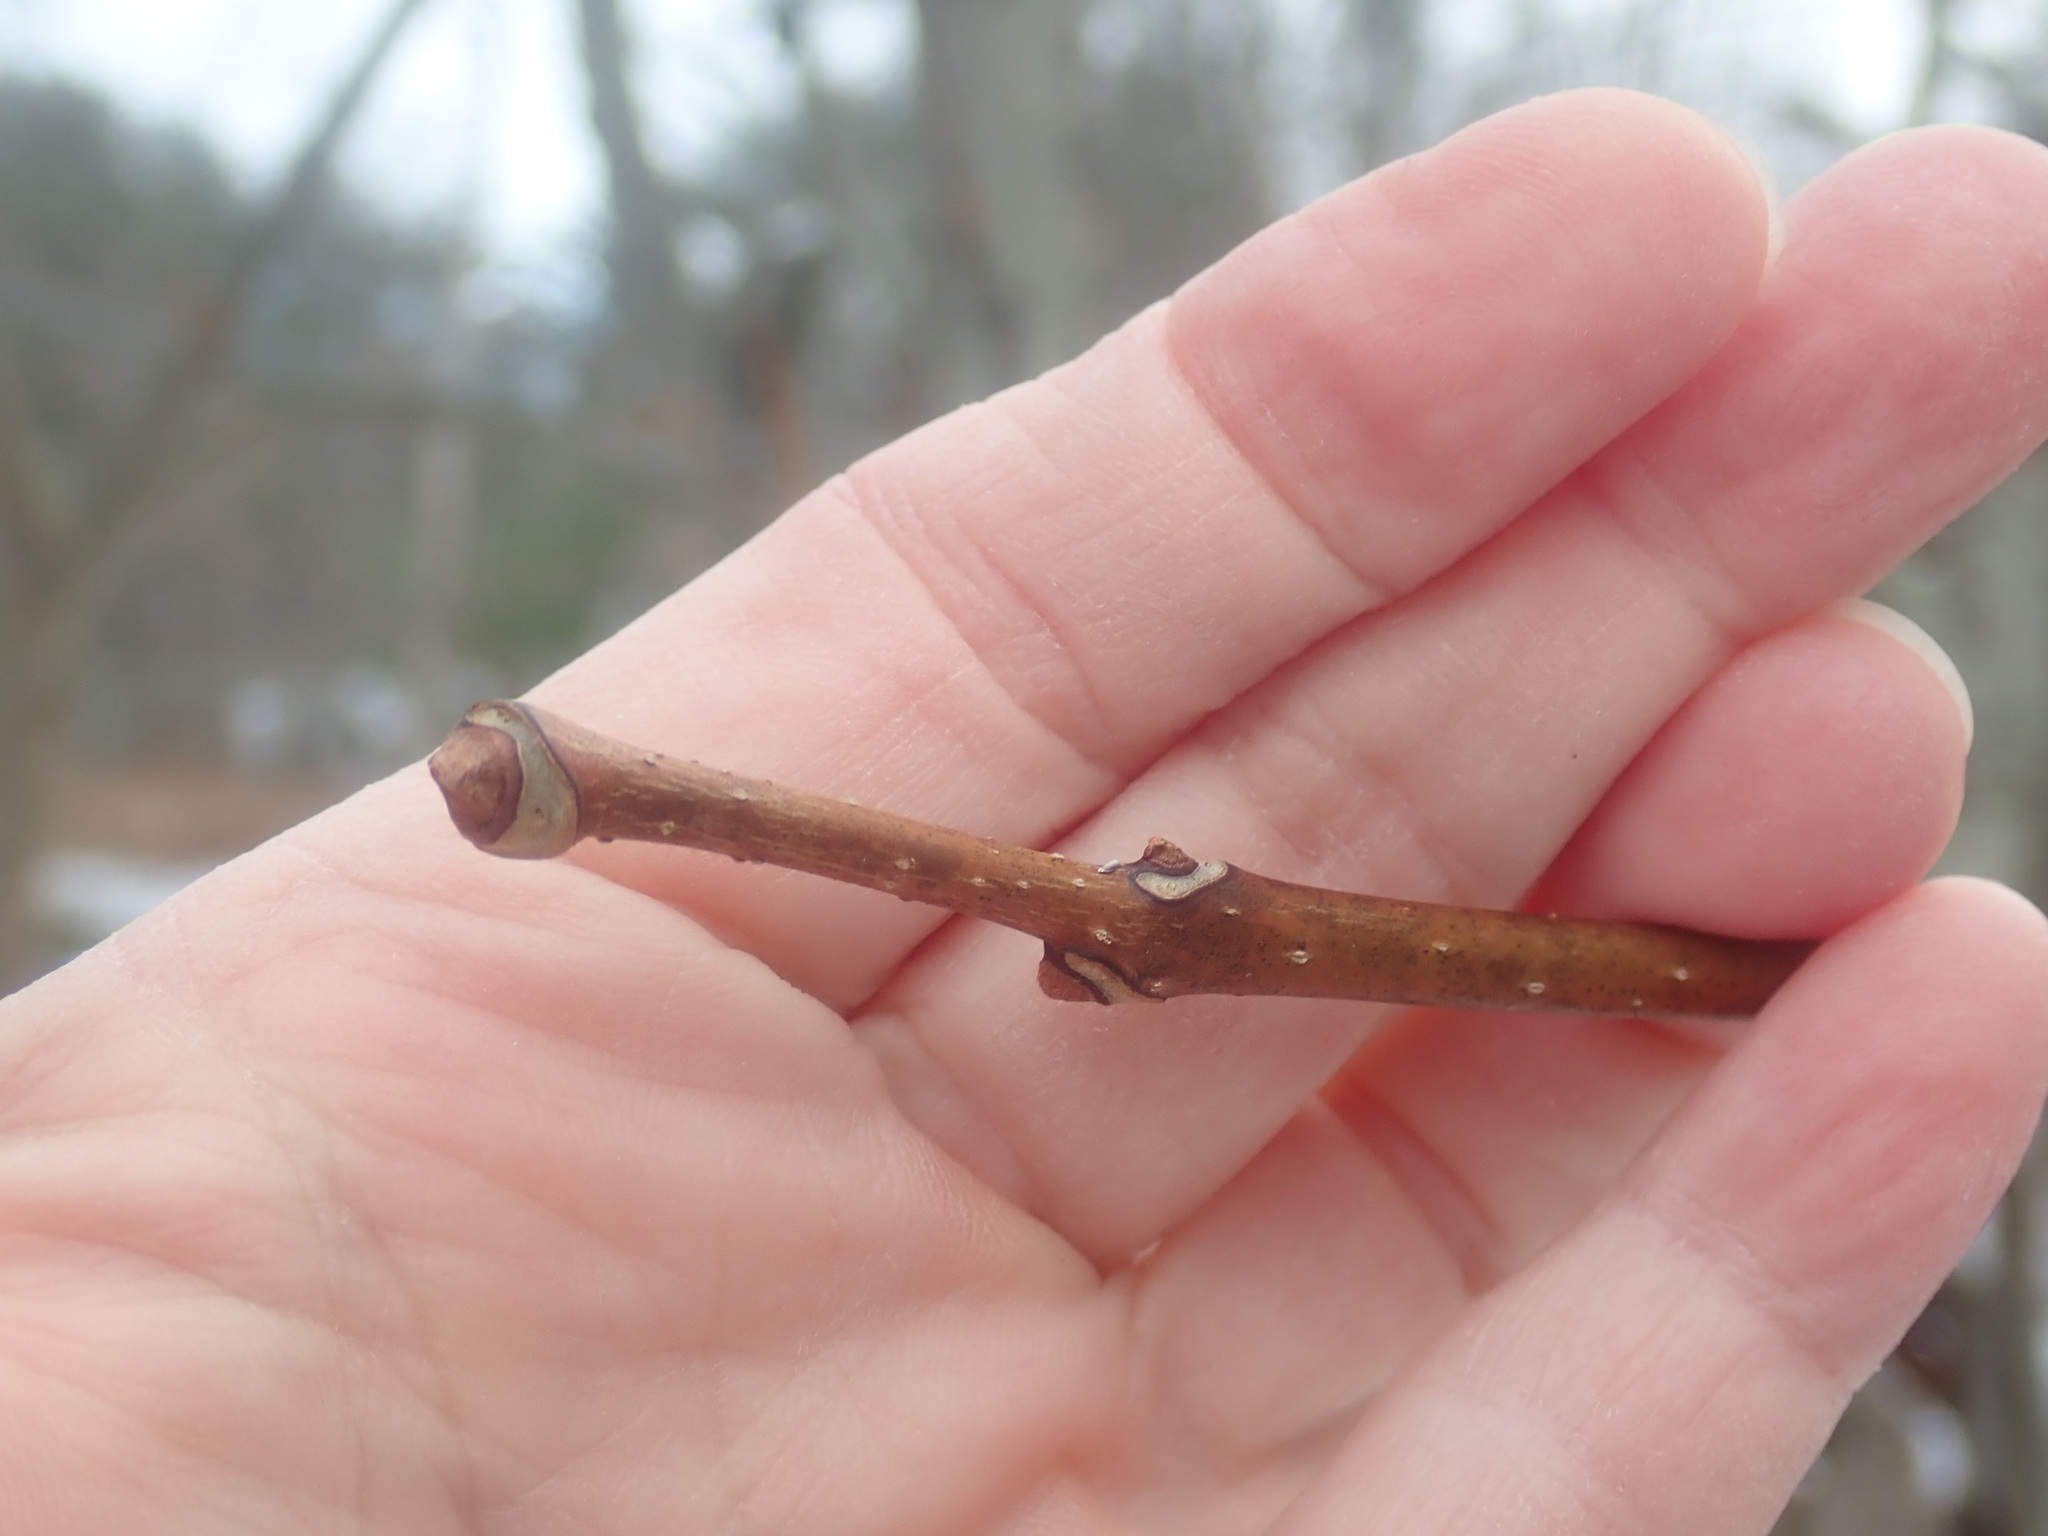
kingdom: Plantae
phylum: Tracheophyta
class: Magnoliopsida
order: Sapindales
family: Rutaceae
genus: Phellodendron
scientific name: Phellodendron amurense
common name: Amur corktree
